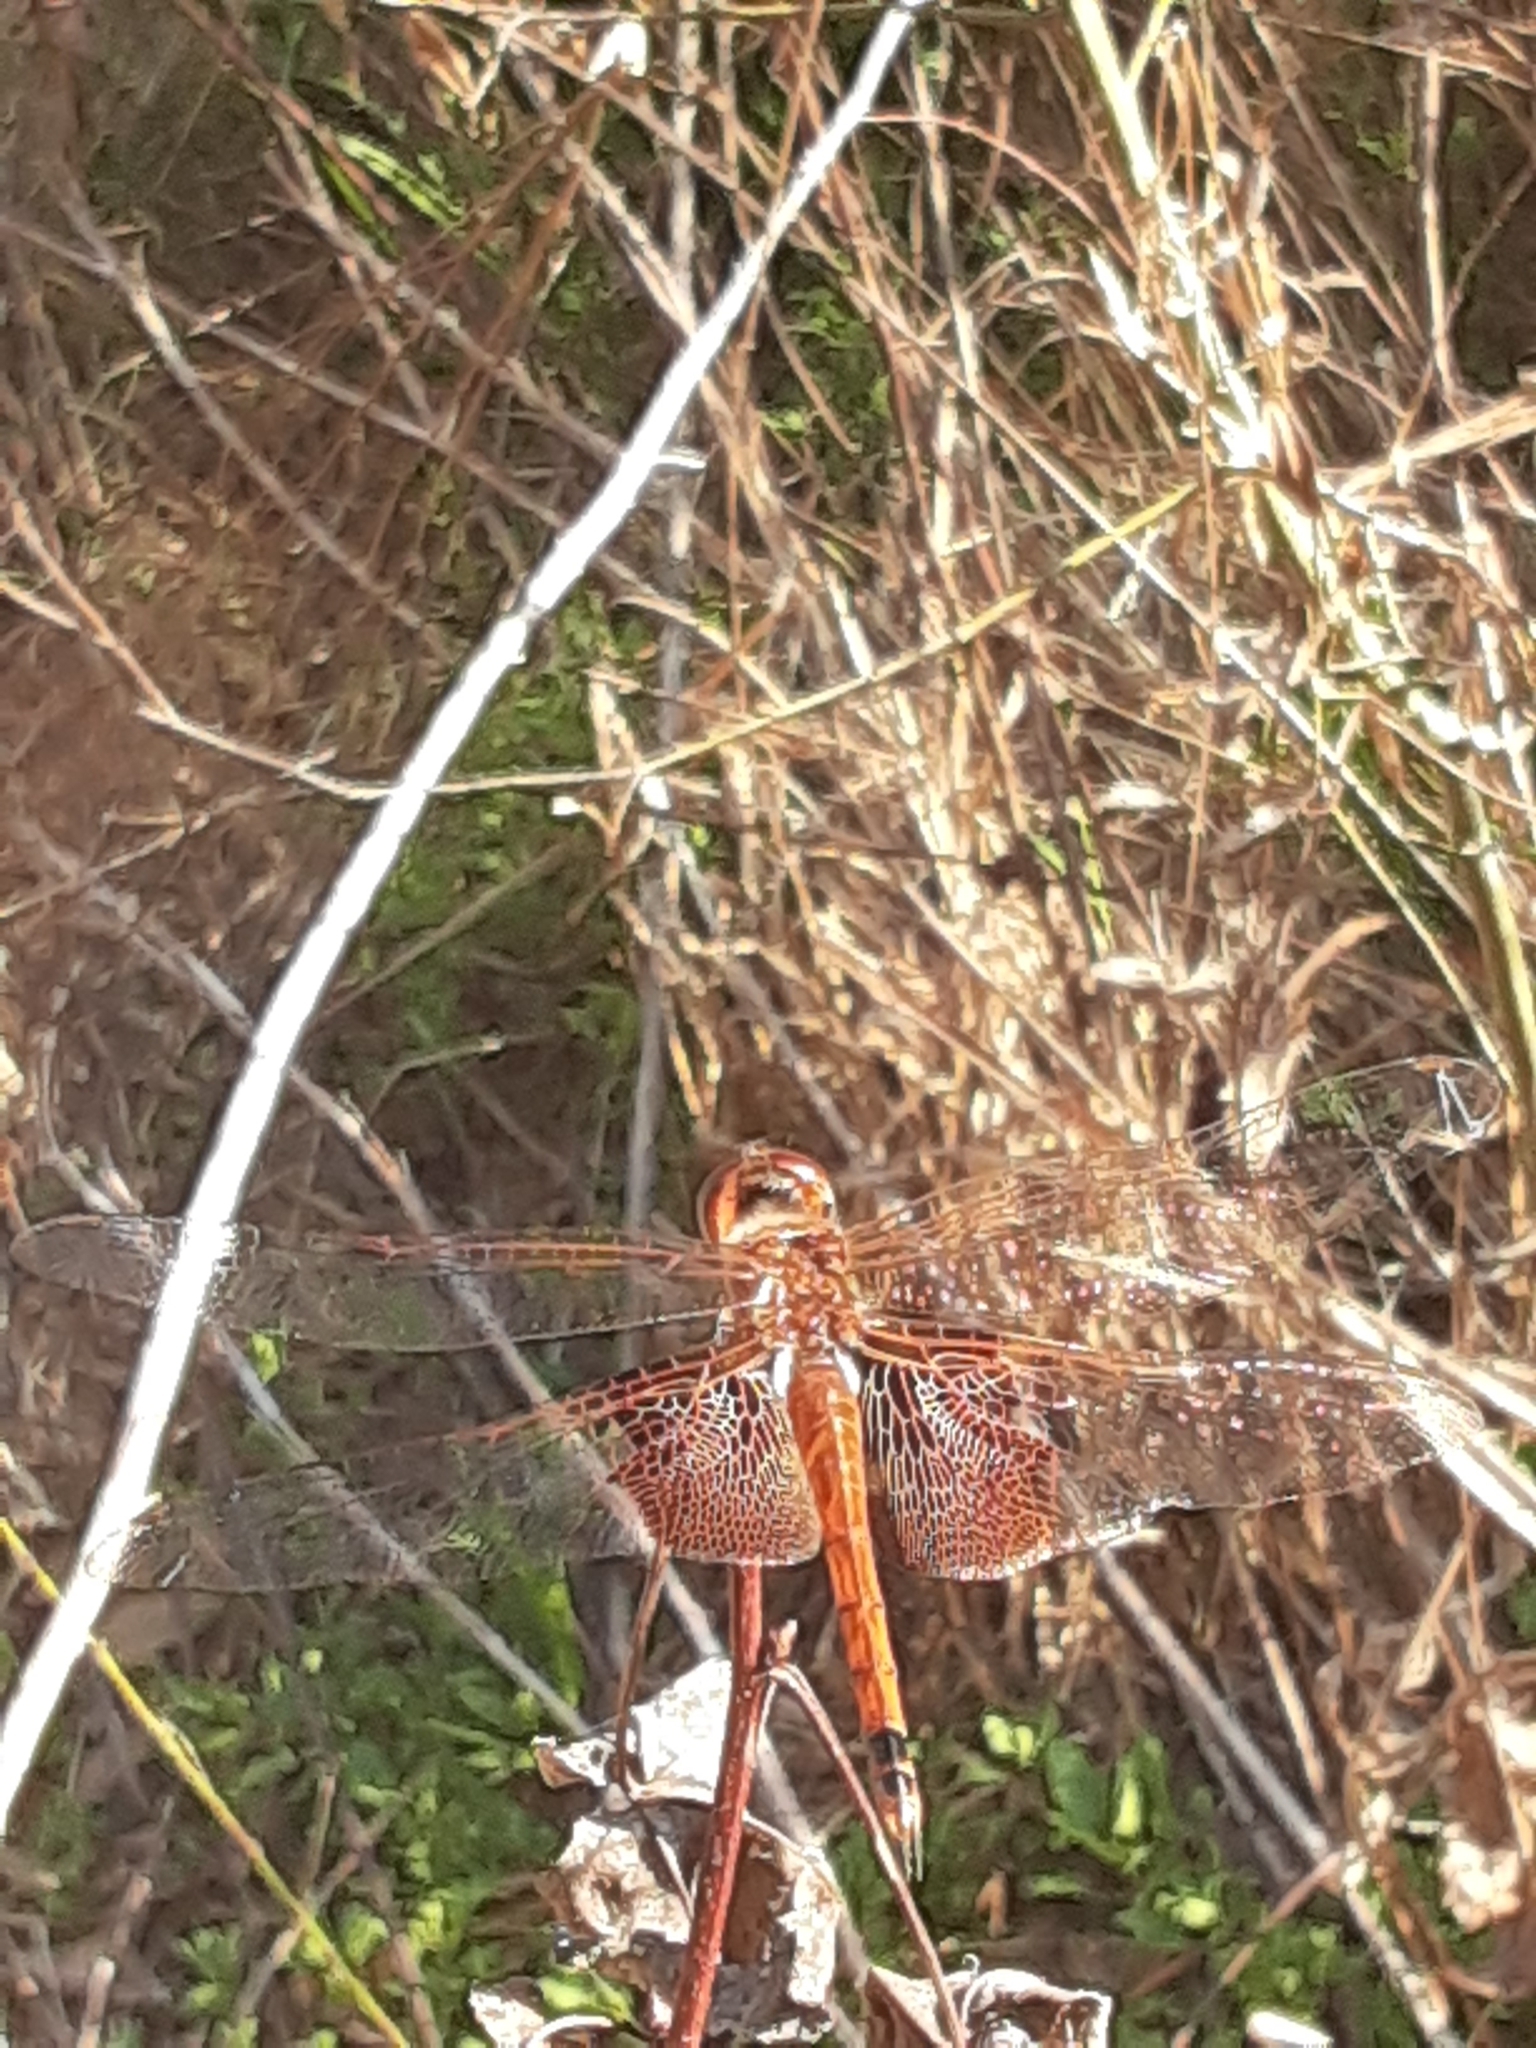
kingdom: Animalia
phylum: Arthropoda
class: Insecta
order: Odonata
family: Libellulidae
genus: Tramea
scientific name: Tramea carolina
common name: Carolina saddlebags
